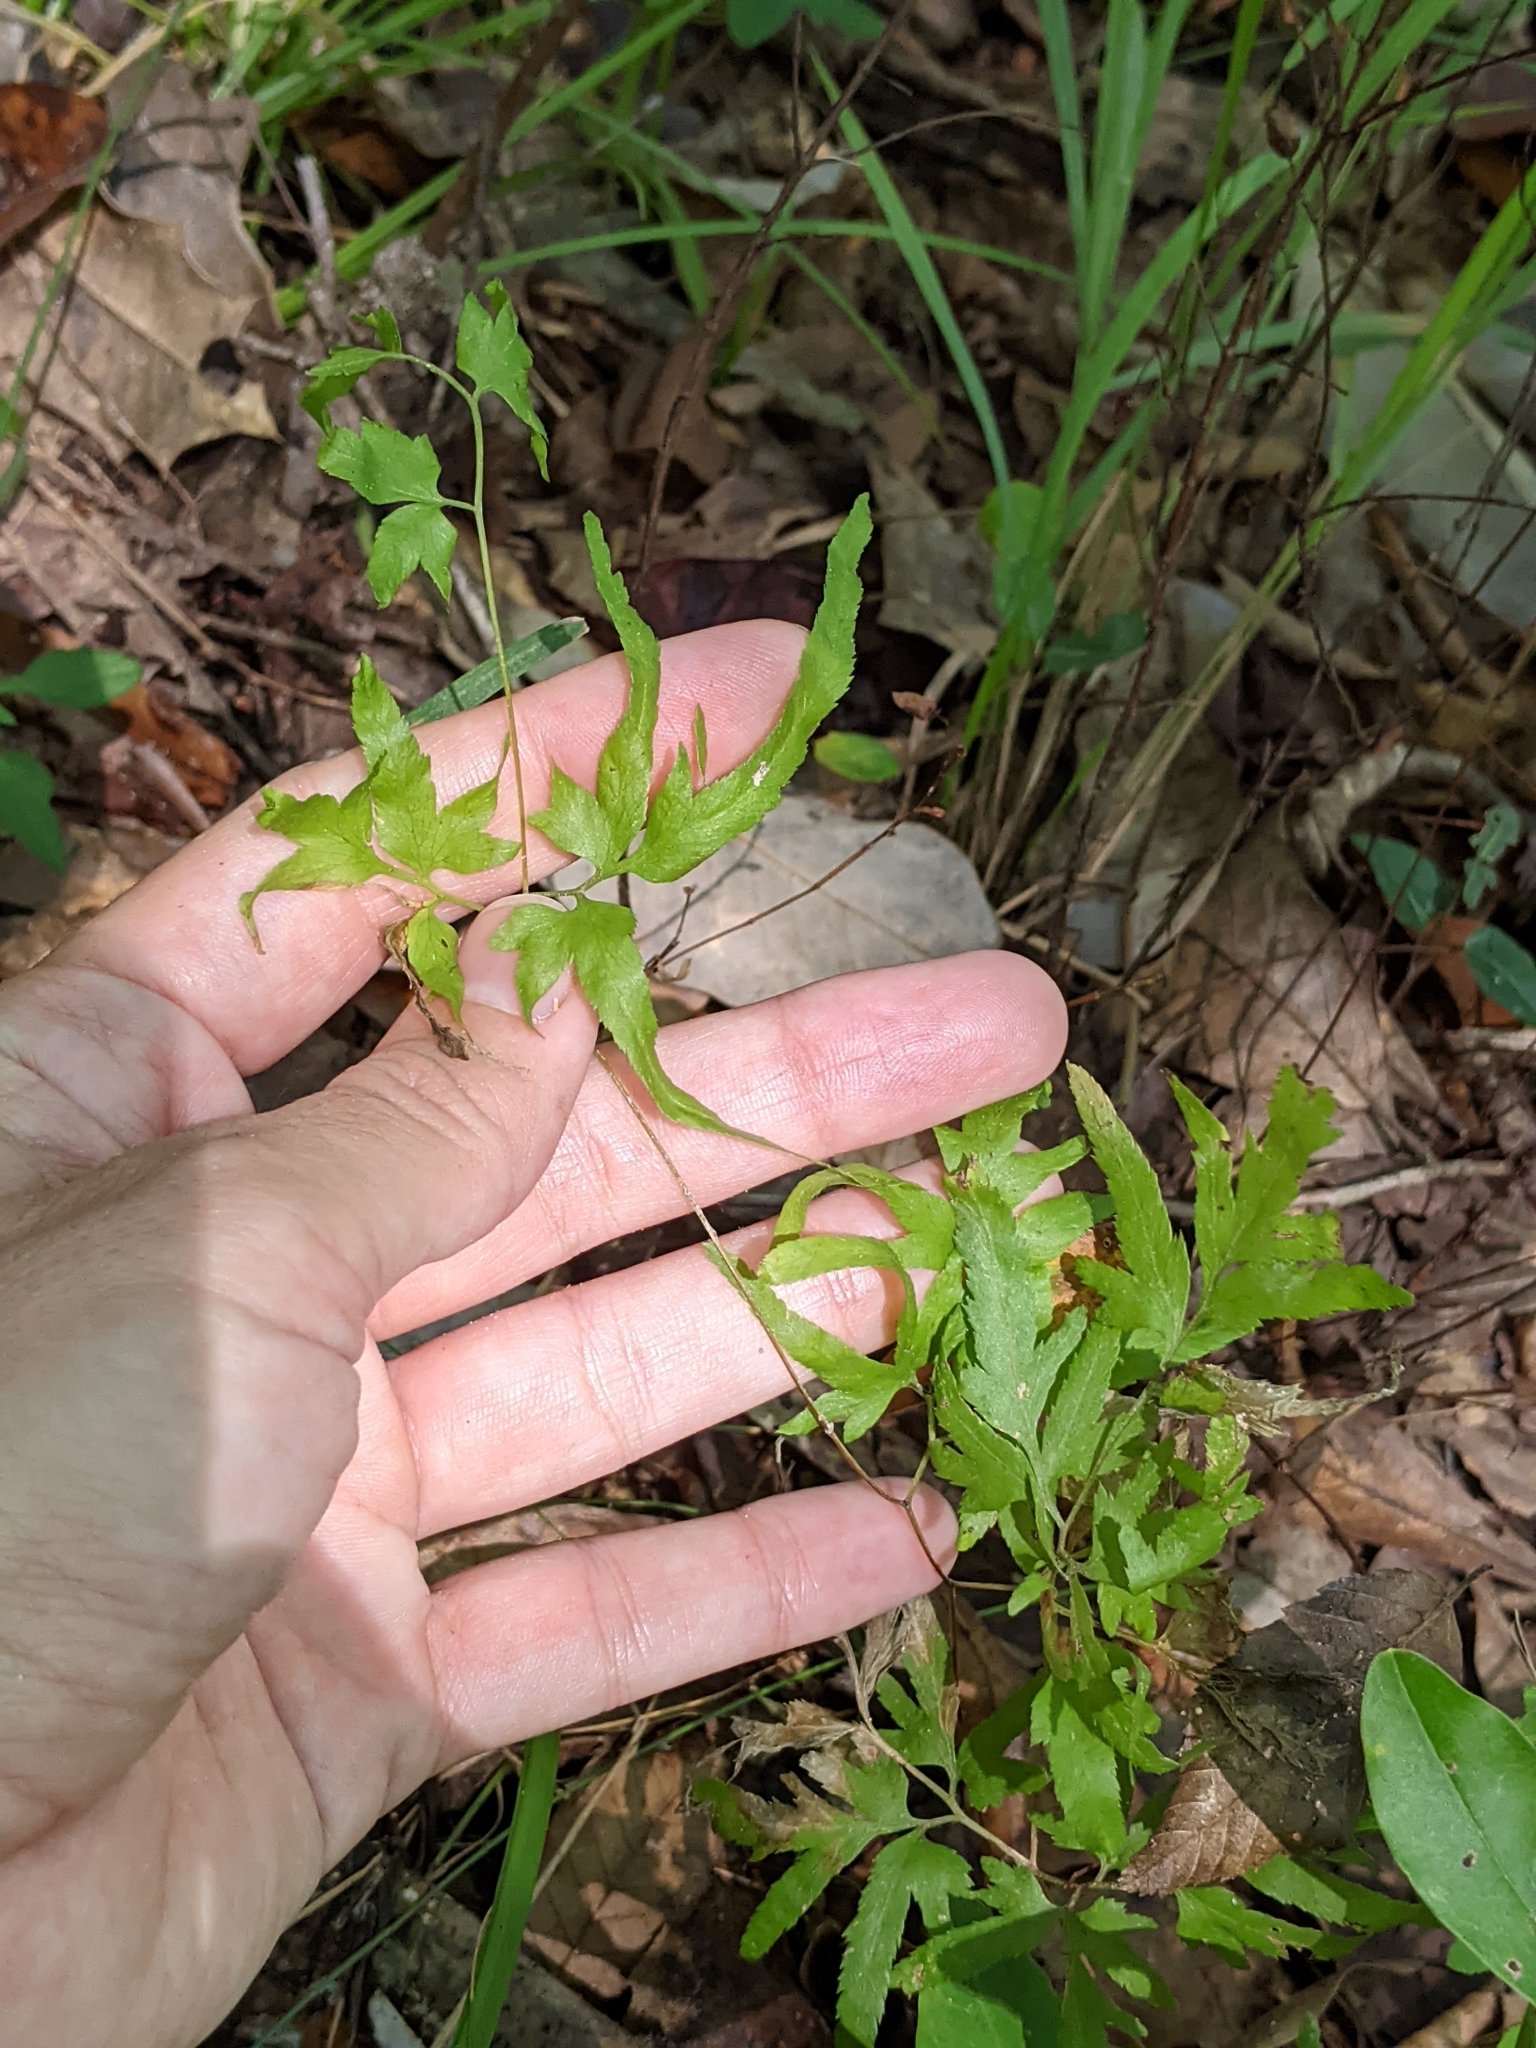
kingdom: Plantae
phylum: Tracheophyta
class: Polypodiopsida
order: Schizaeales
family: Lygodiaceae
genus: Lygodium
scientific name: Lygodium japonicum
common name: Japanese climbing fern
